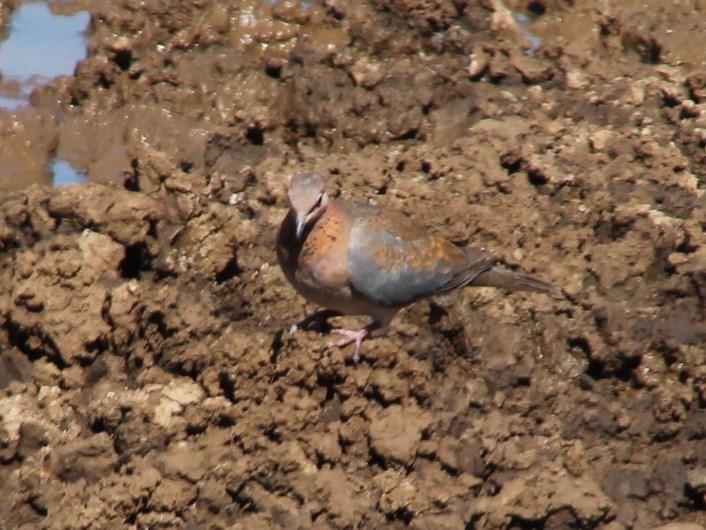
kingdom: Animalia
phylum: Chordata
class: Aves
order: Columbiformes
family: Columbidae
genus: Spilopelia
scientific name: Spilopelia senegalensis
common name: Laughing dove
